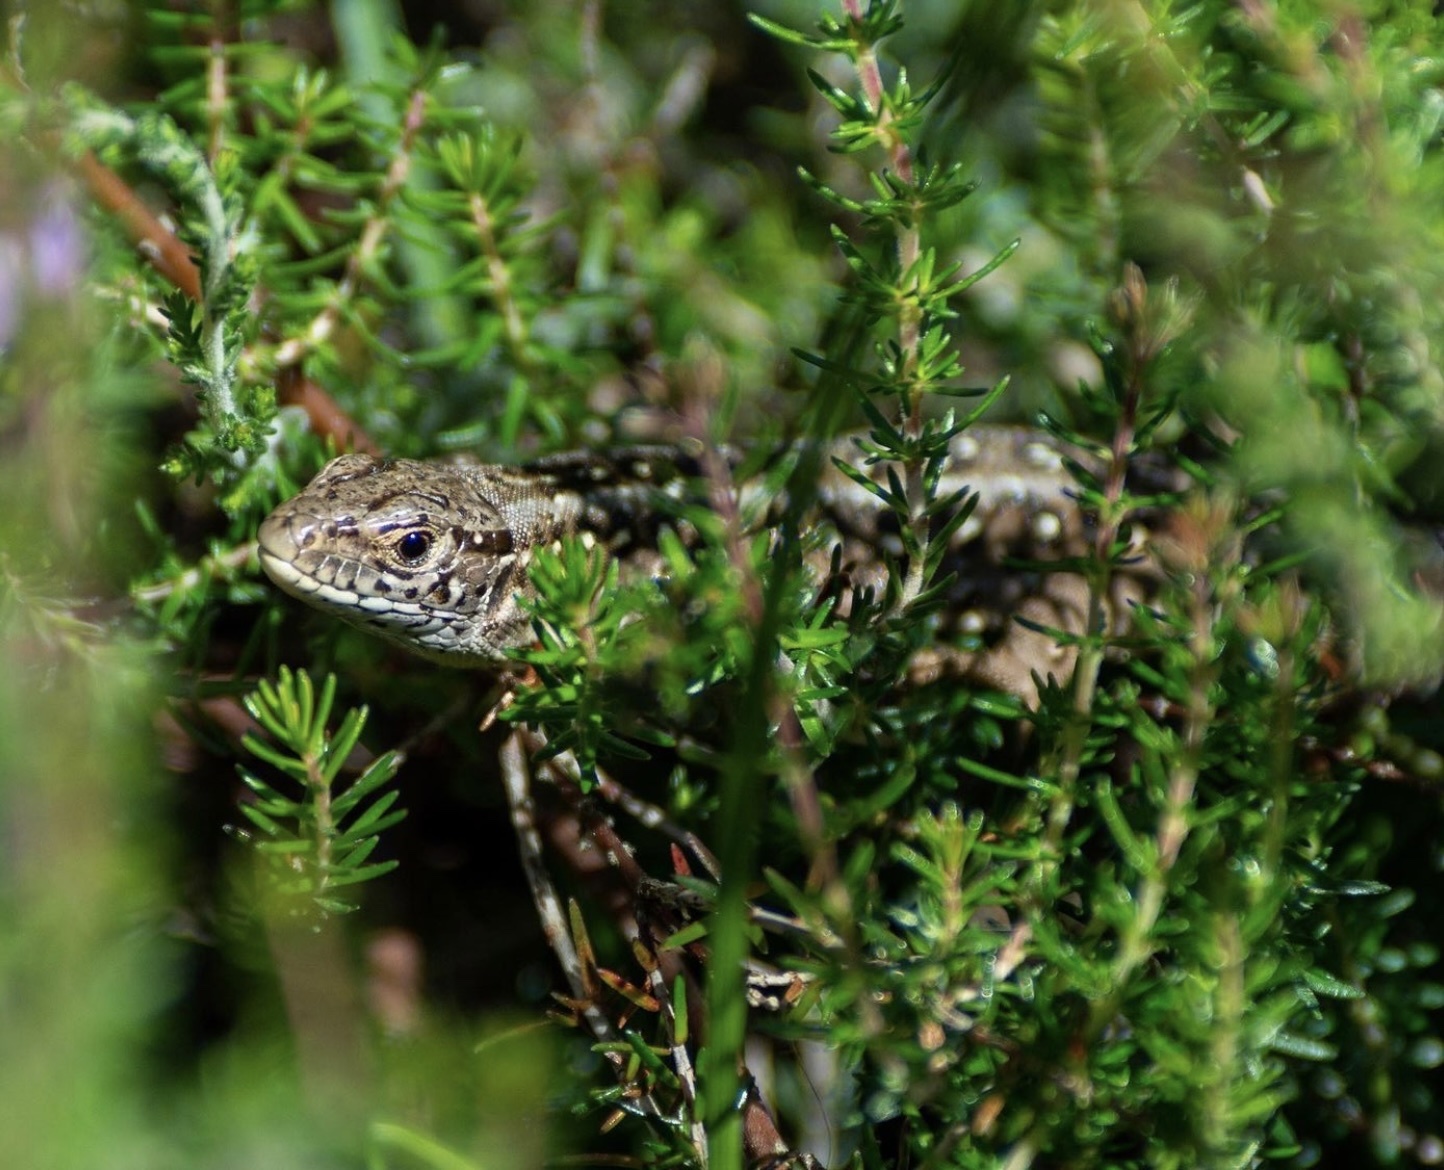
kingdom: Animalia
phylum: Chordata
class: Squamata
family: Lacertidae
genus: Lacerta
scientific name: Lacerta agilis
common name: Sand lizard
